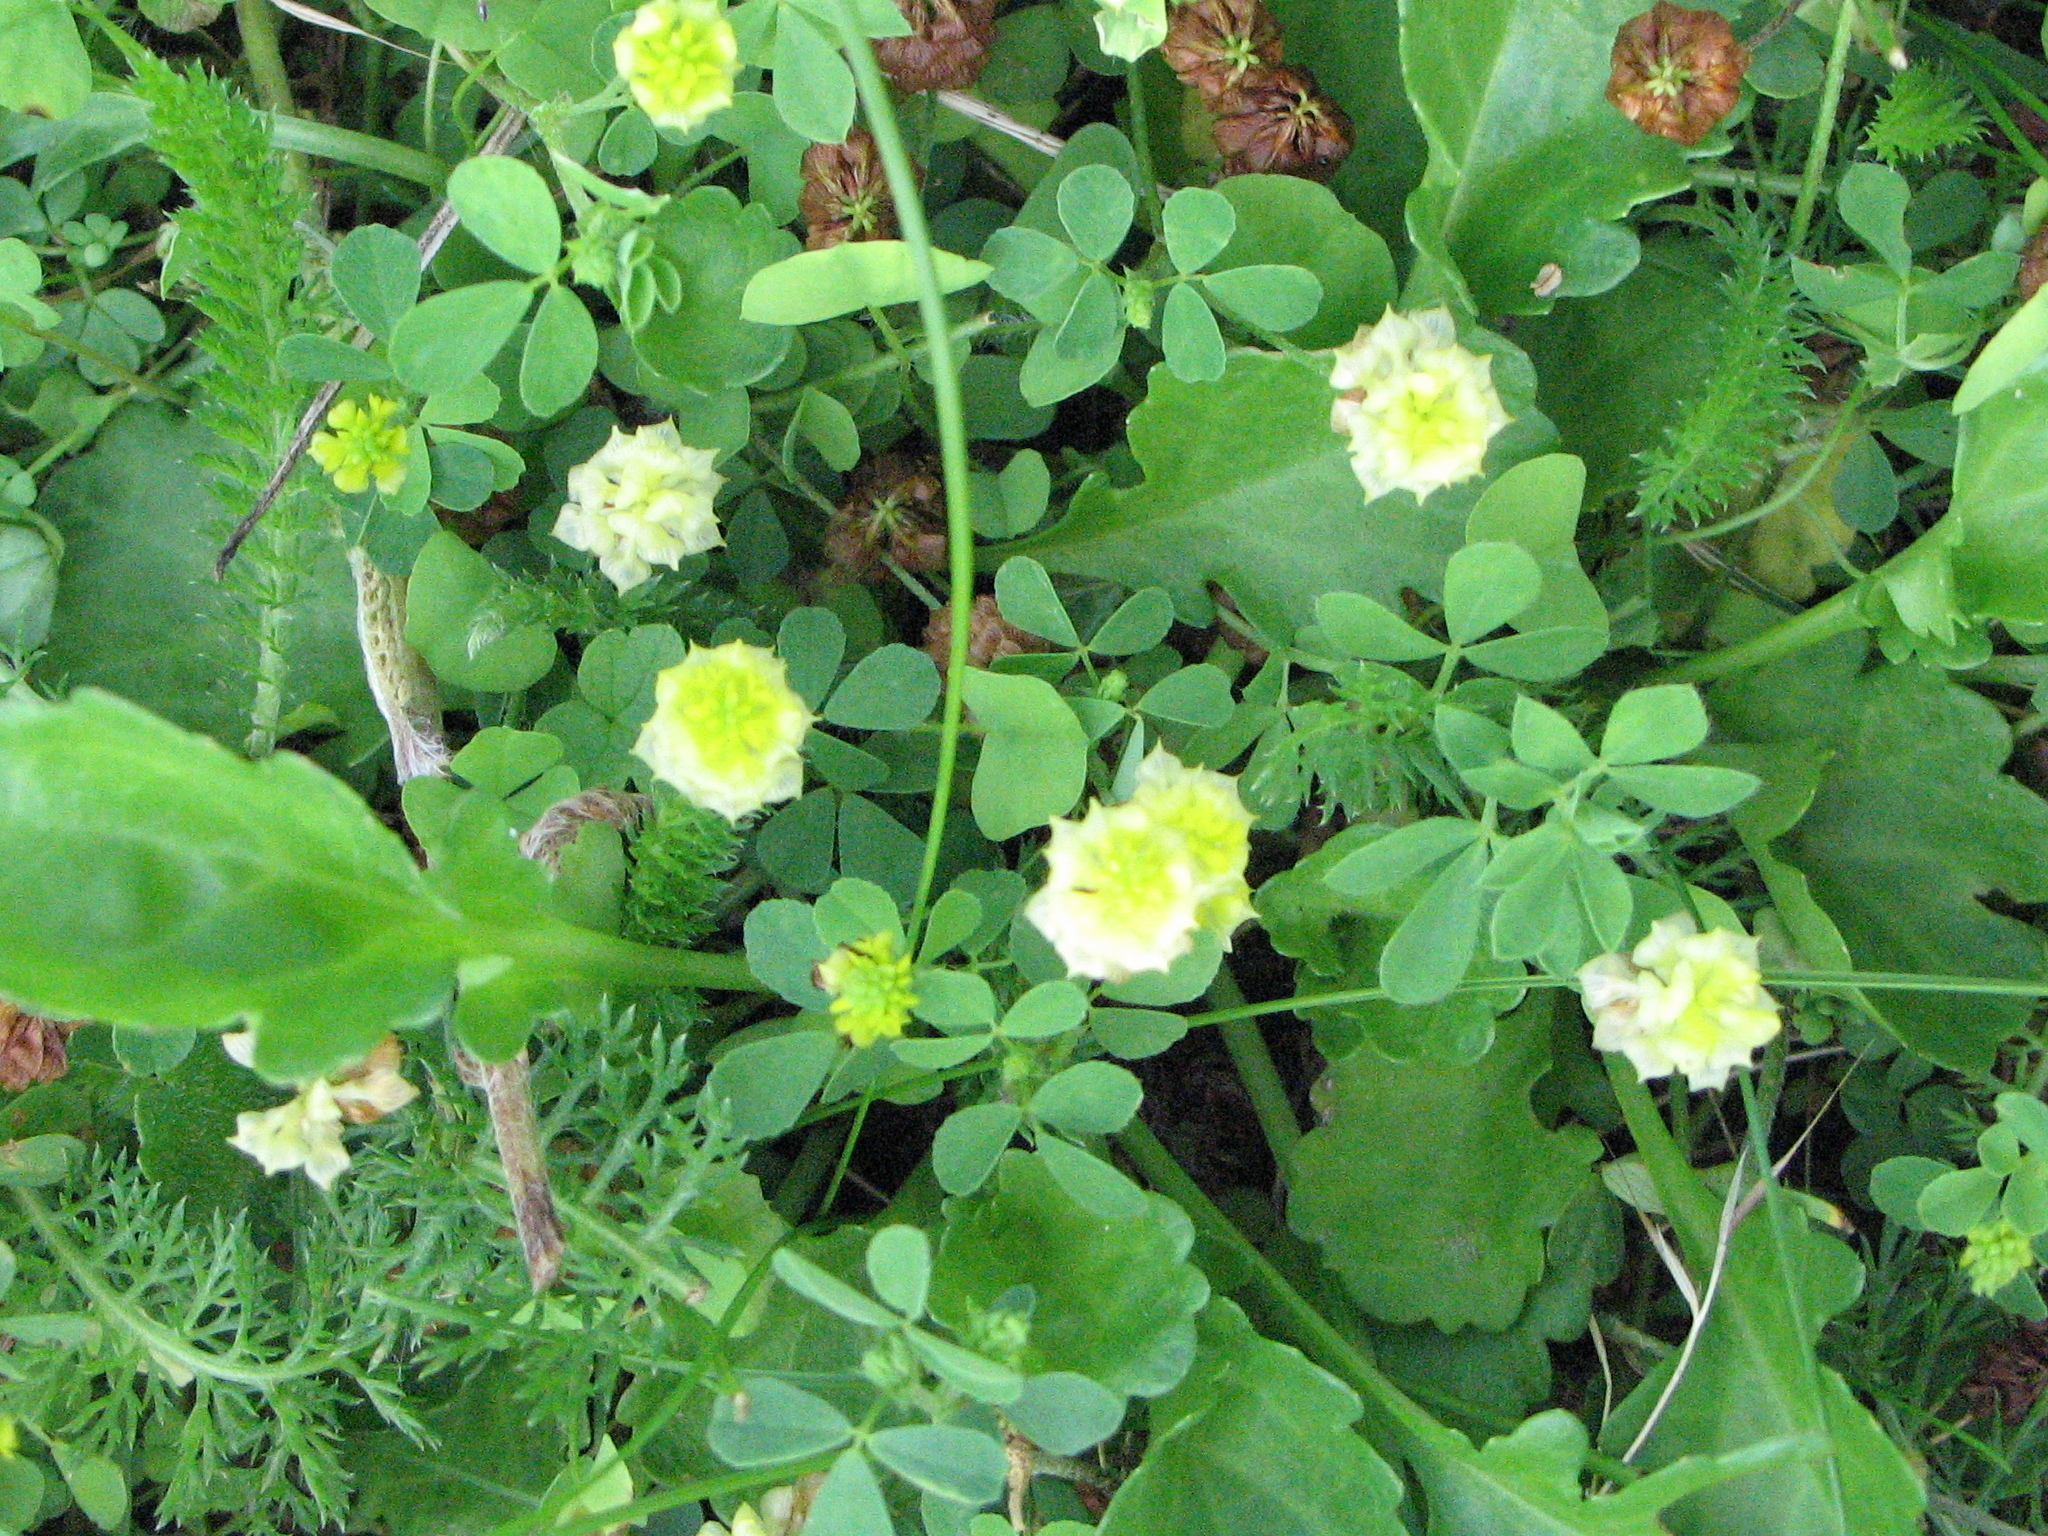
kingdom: Plantae
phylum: Tracheophyta
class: Magnoliopsida
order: Fabales
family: Fabaceae
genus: Trifolium
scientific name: Trifolium campestre
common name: Field clover
